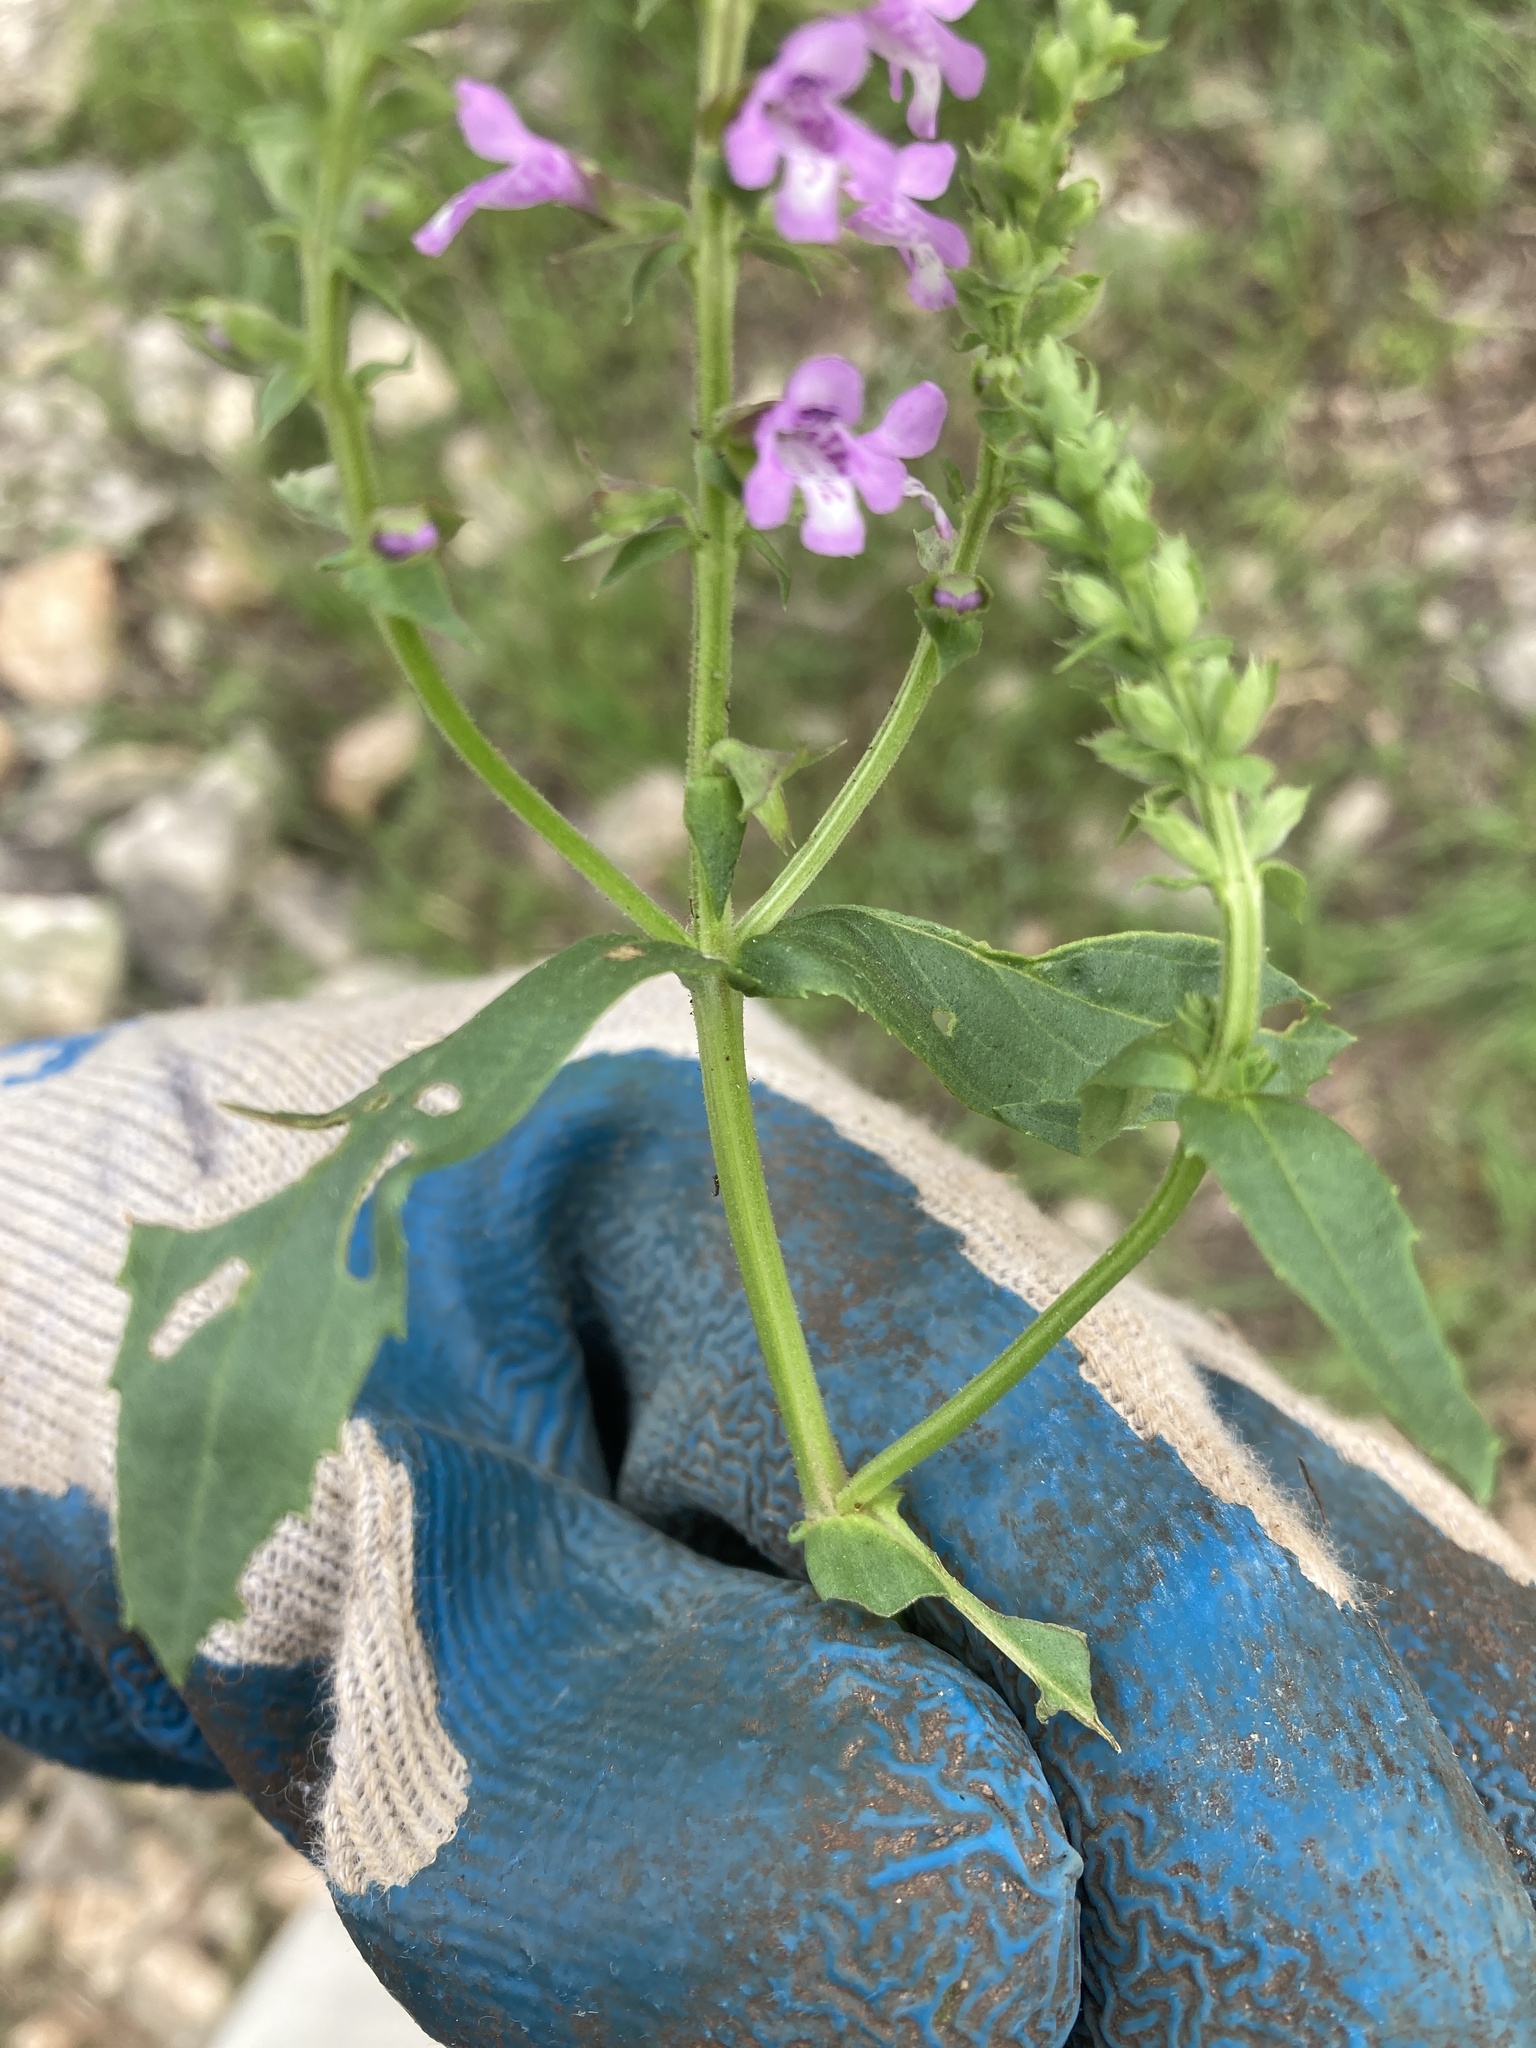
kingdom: Plantae
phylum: Tracheophyta
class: Magnoliopsida
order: Lamiales
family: Lamiaceae
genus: Warnockia
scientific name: Warnockia scutellarioides
